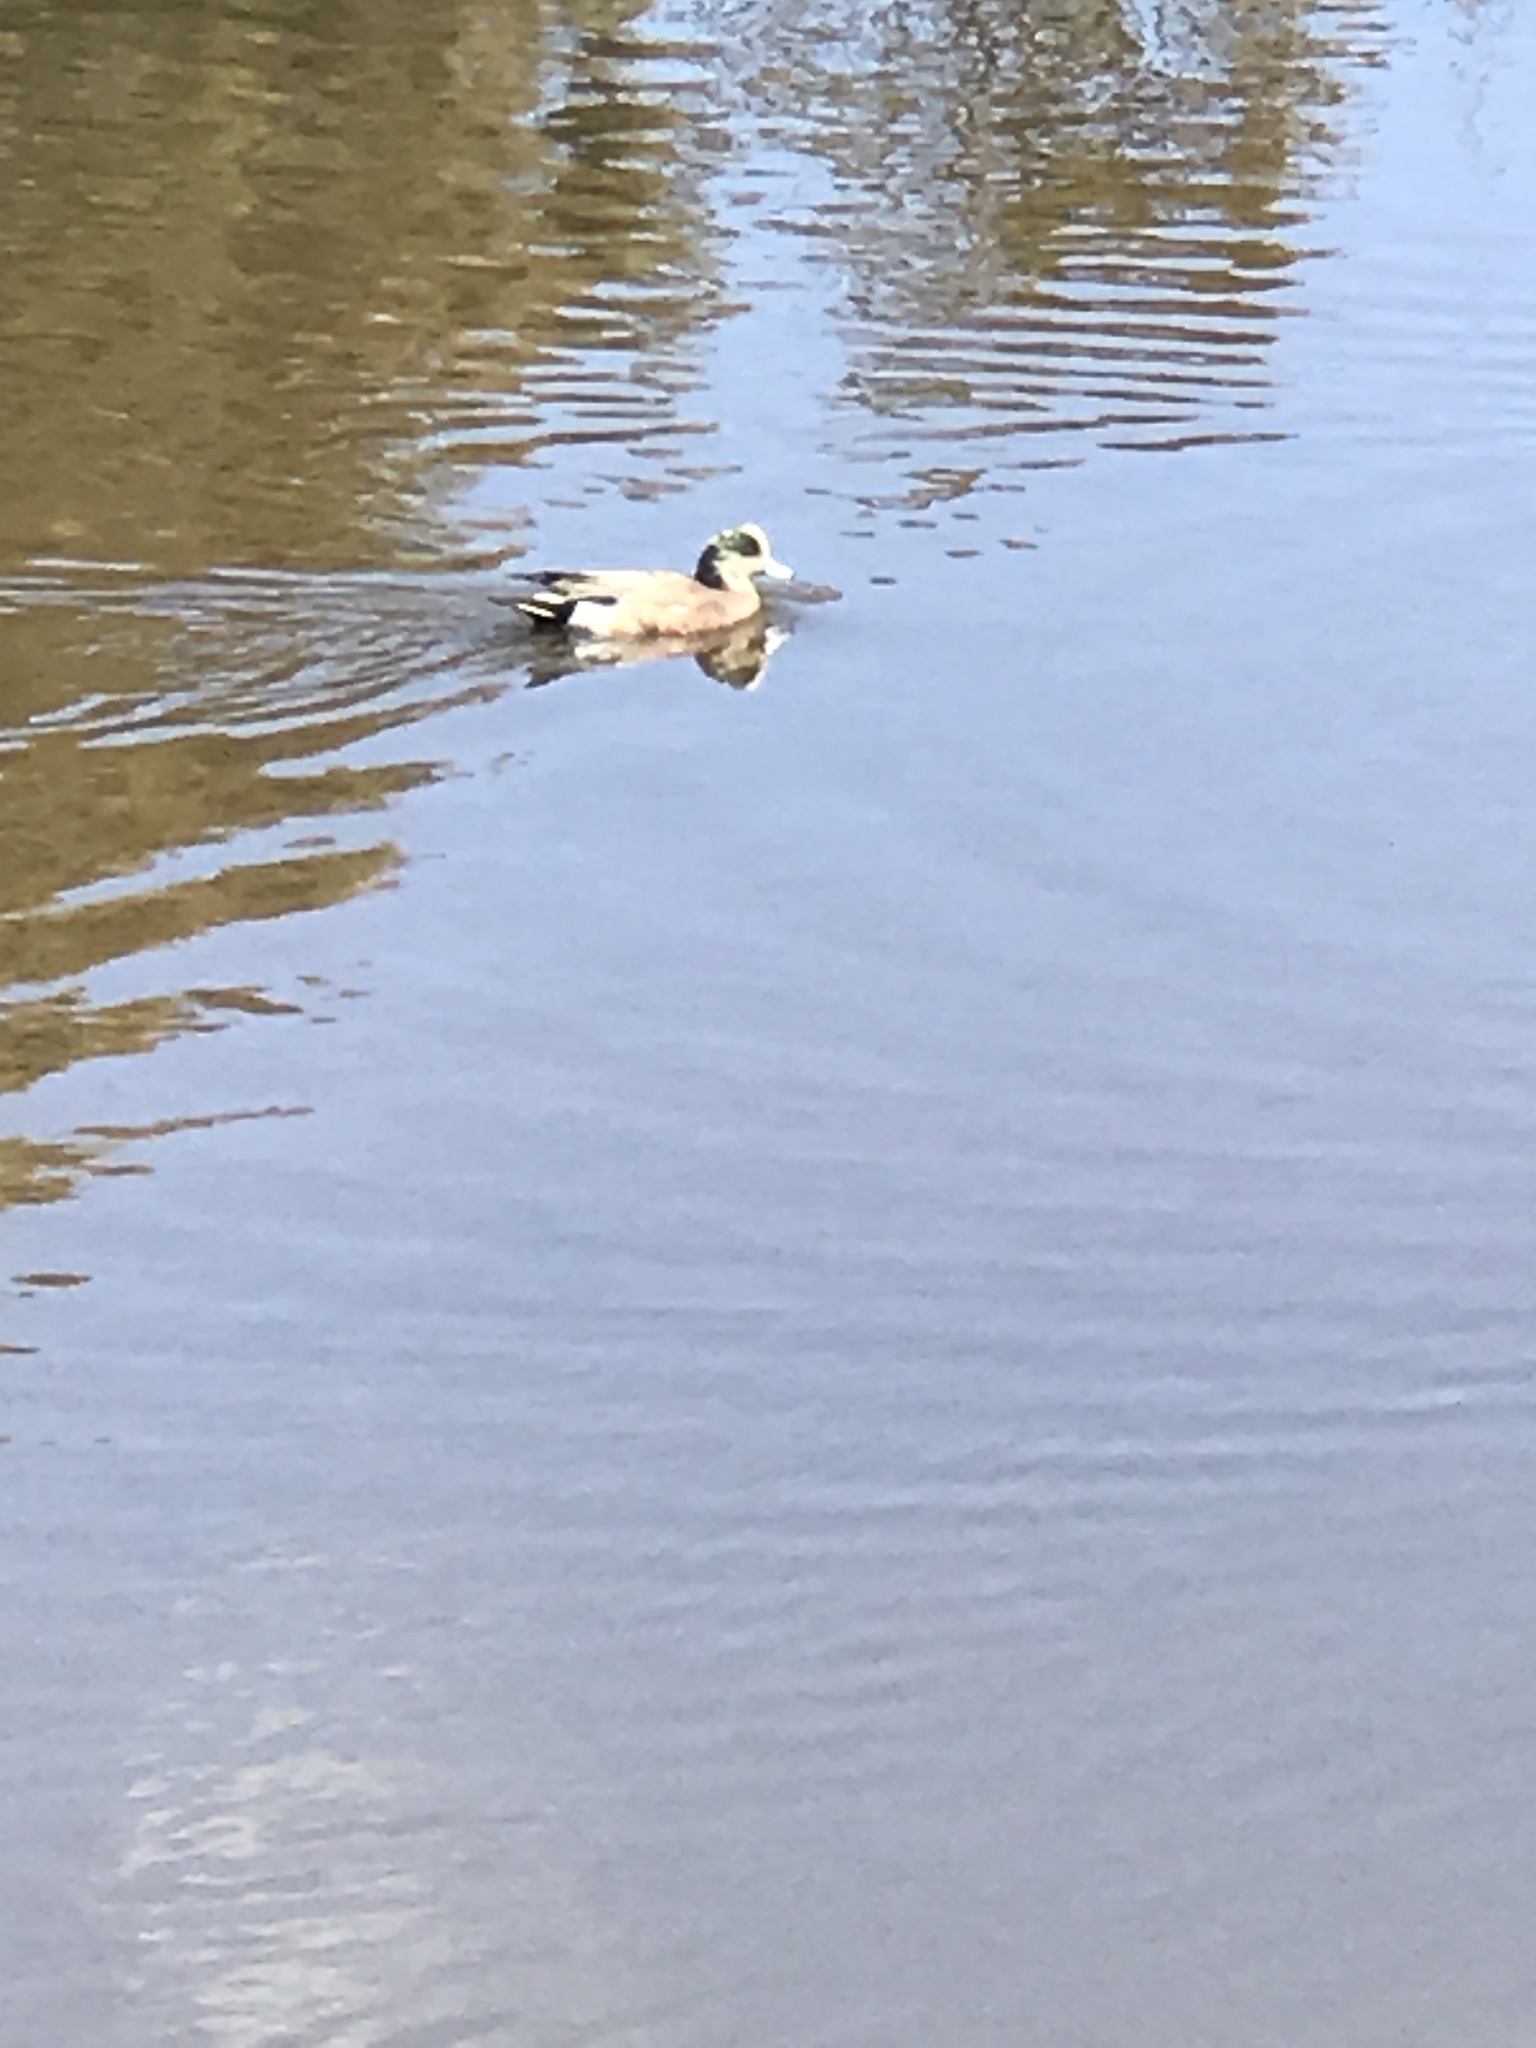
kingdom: Animalia
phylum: Chordata
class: Aves
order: Anseriformes
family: Anatidae
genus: Mareca
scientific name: Mareca americana
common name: American wigeon
